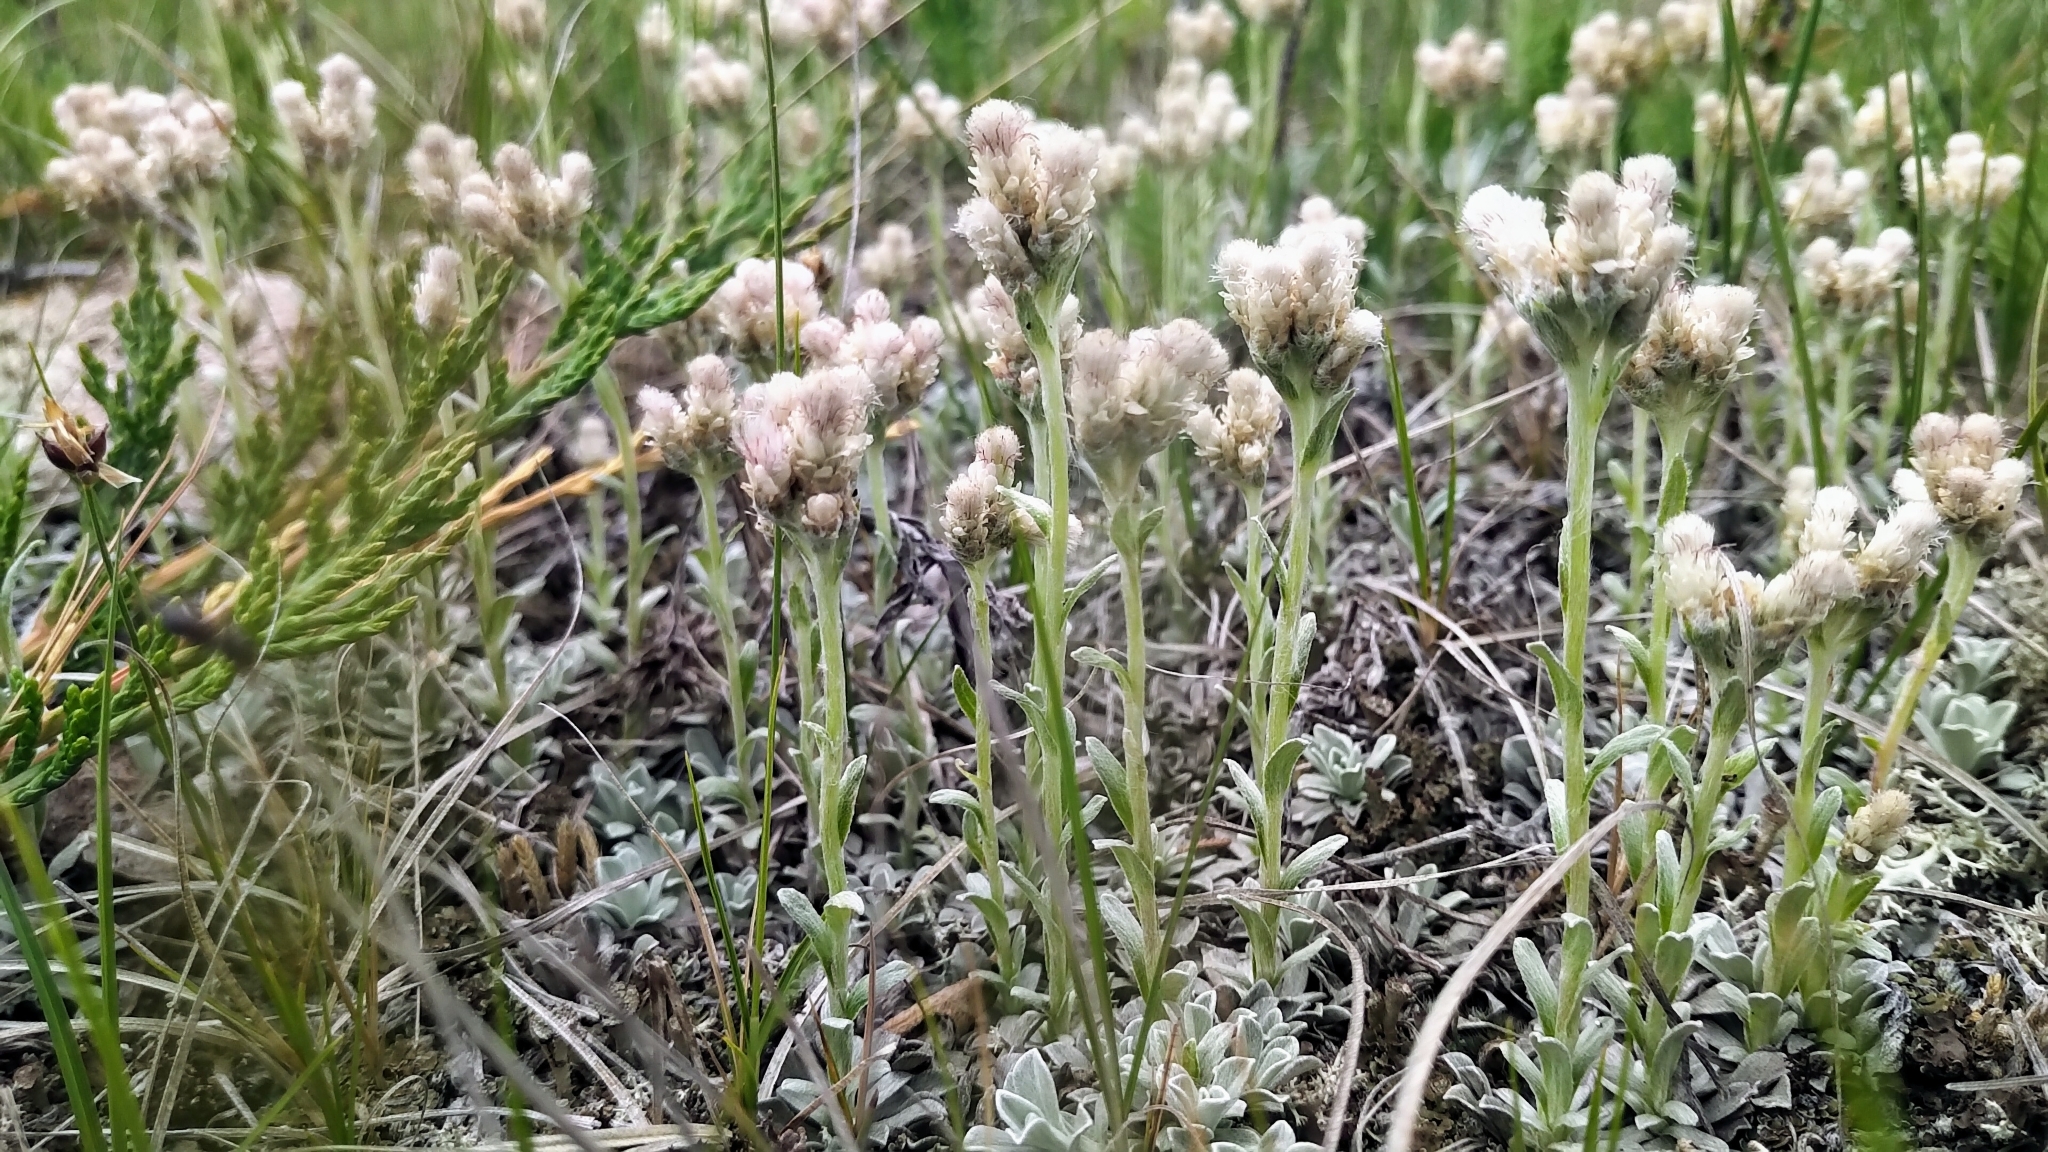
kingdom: Plantae
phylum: Tracheophyta
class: Magnoliopsida
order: Asterales
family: Asteraceae
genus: Antennaria
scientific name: Antennaria parvifolia
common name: Nuttall's pussytoes
